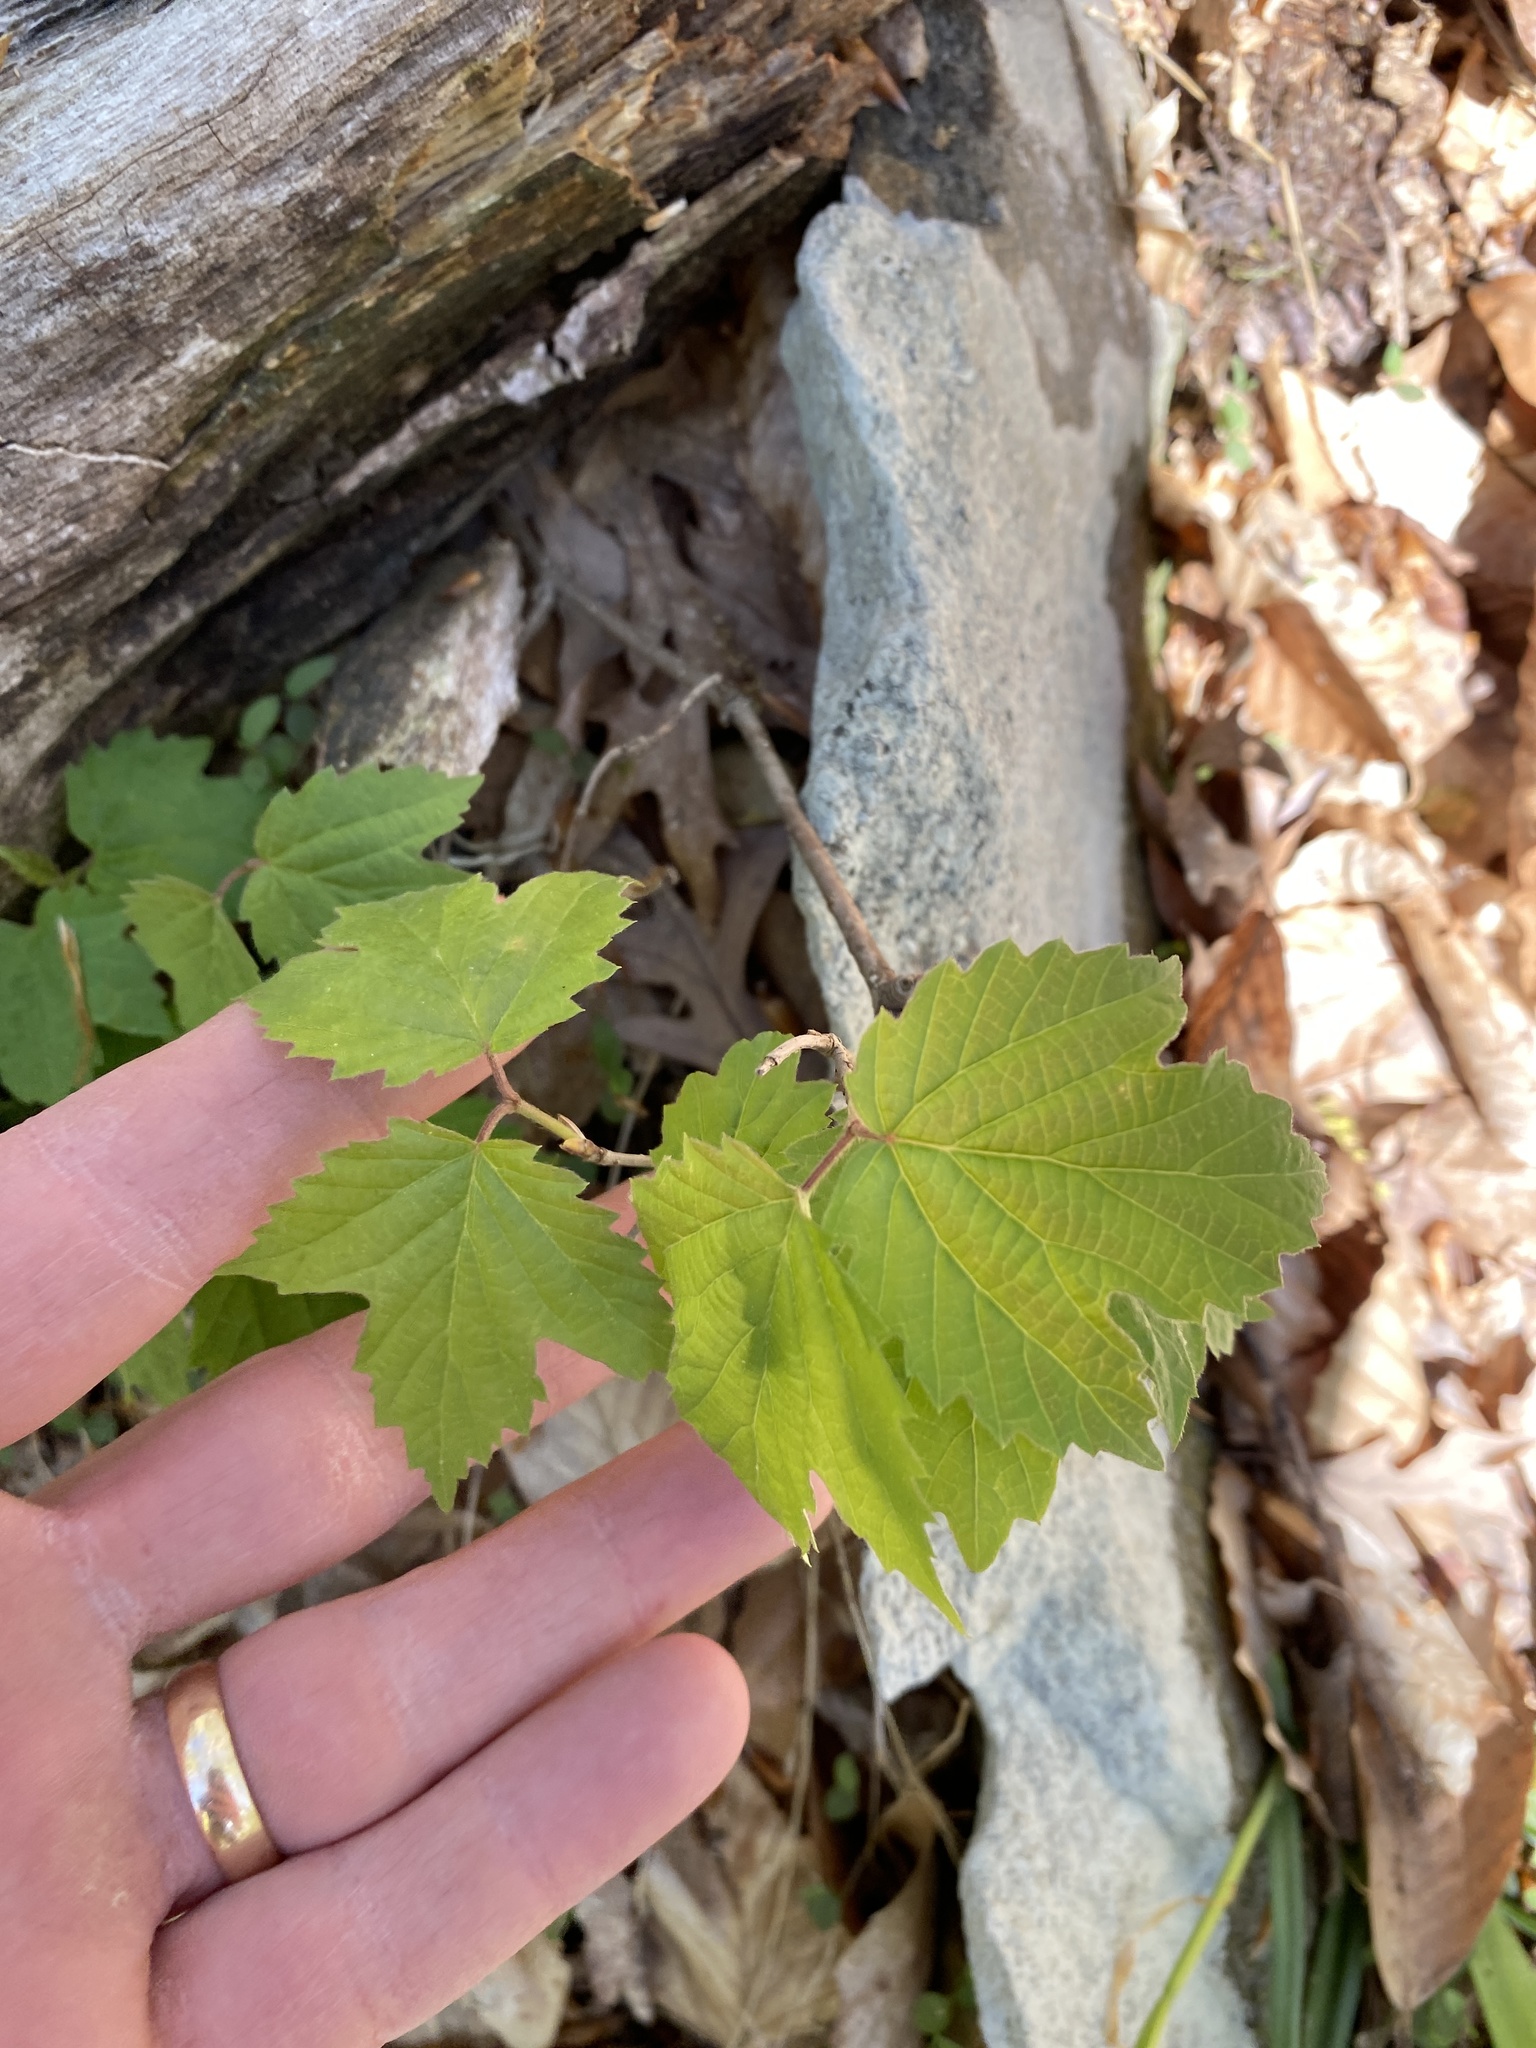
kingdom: Plantae
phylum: Tracheophyta
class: Magnoliopsida
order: Dipsacales
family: Viburnaceae
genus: Viburnum
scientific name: Viburnum acerifolium
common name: Dockmackie
